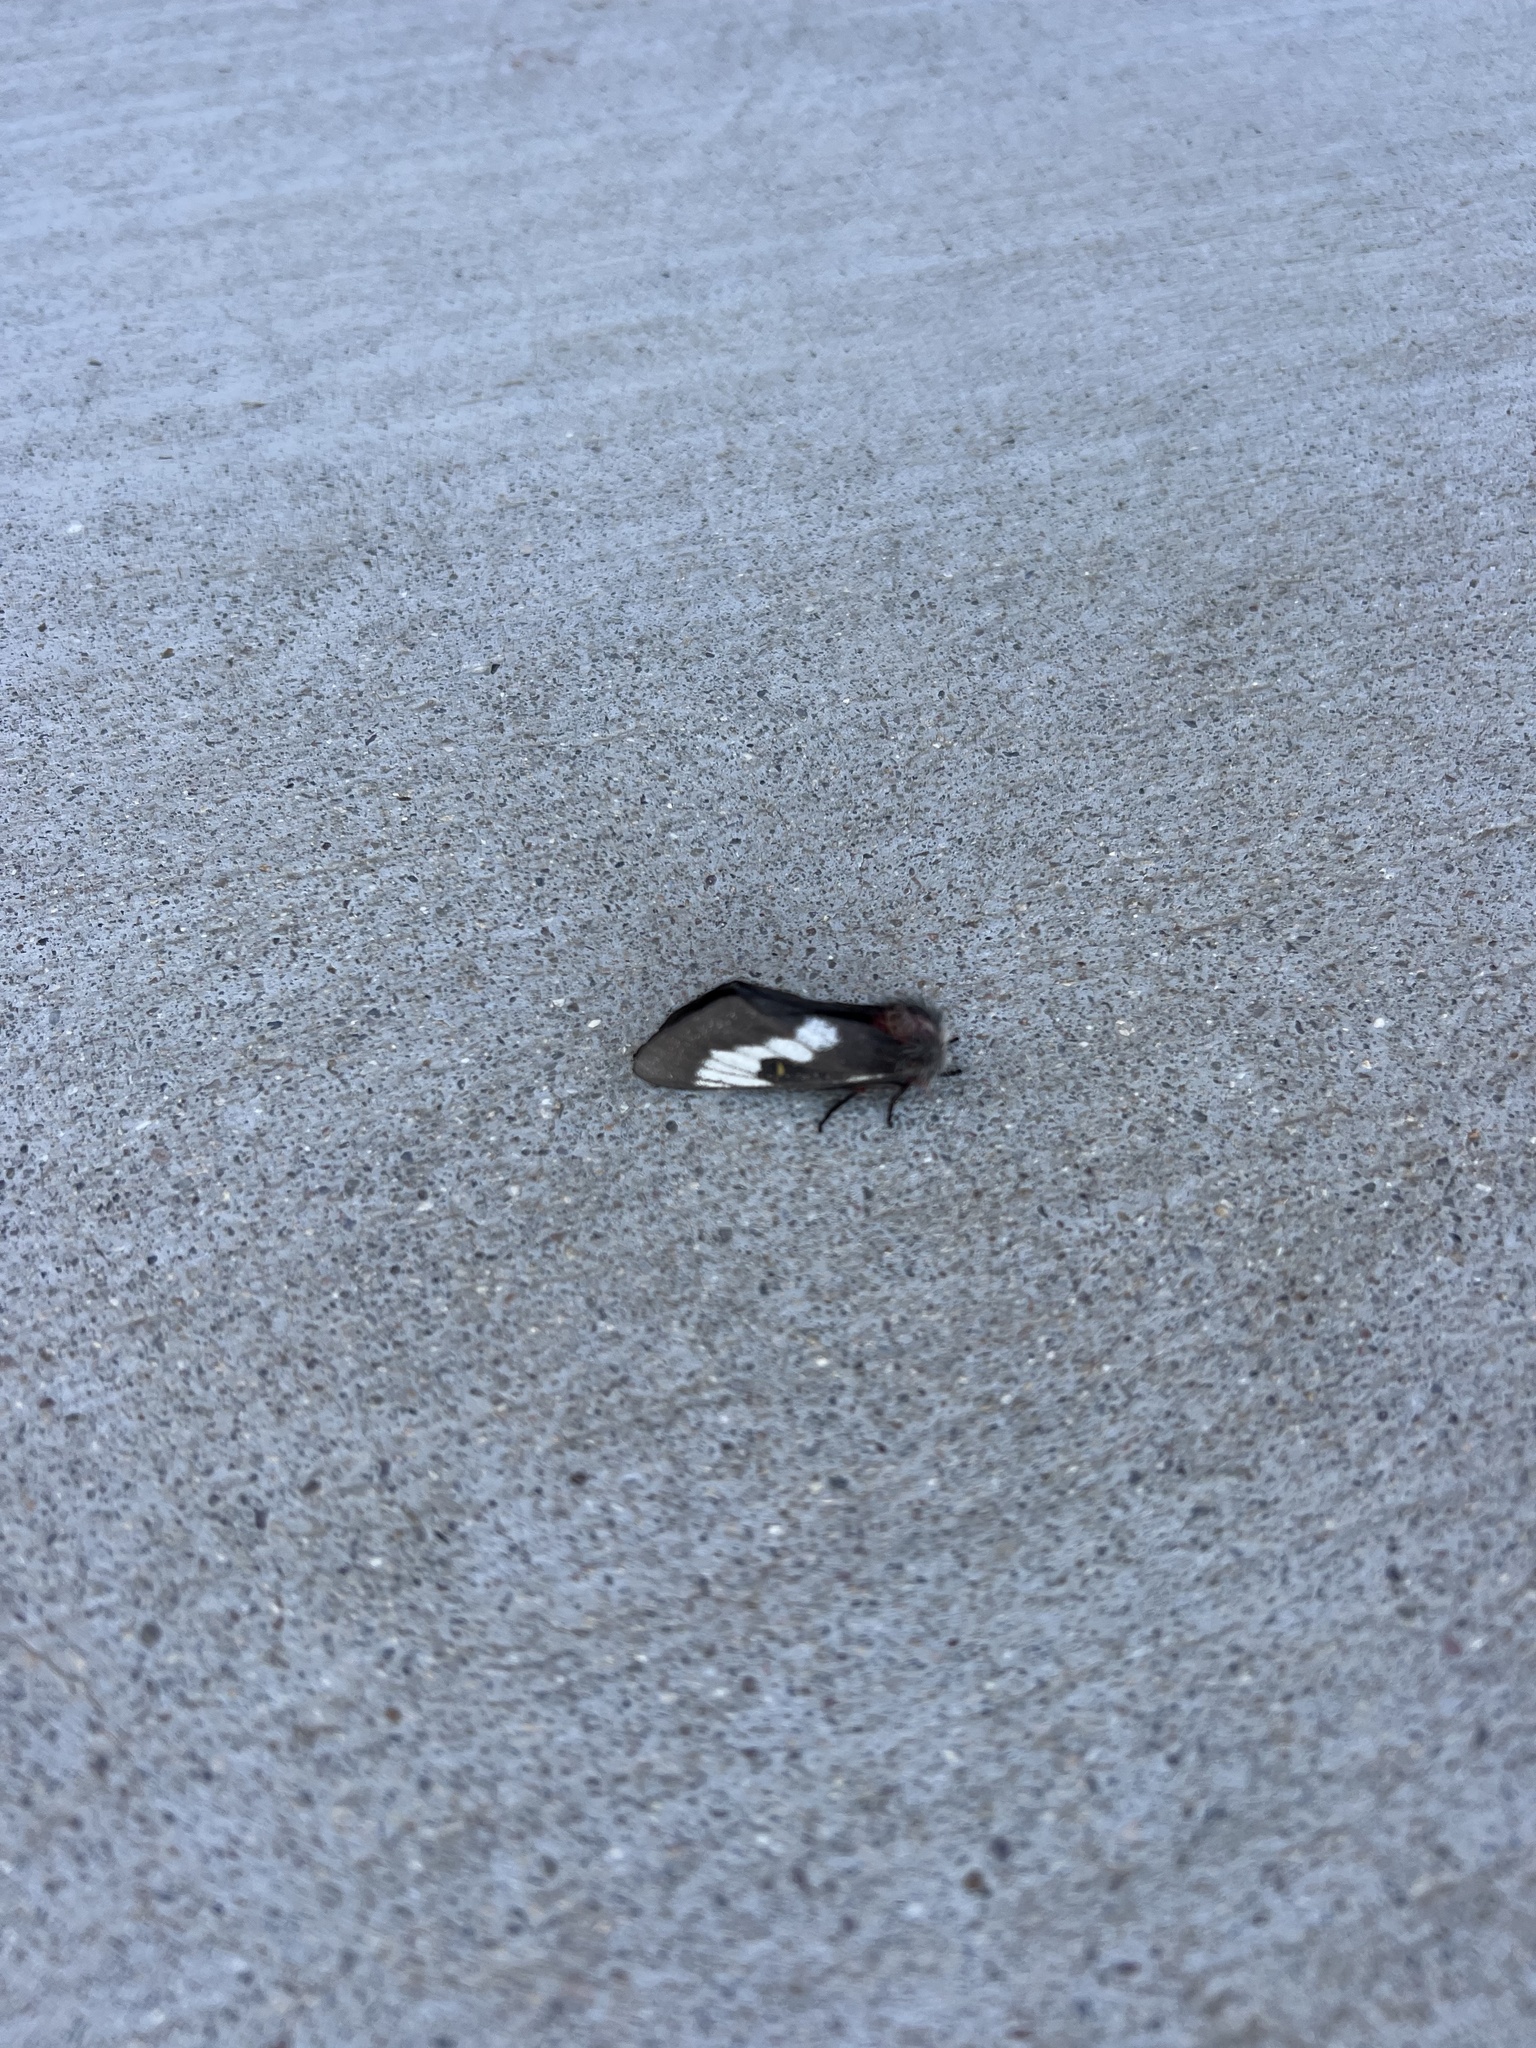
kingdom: Animalia
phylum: Arthropoda
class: Insecta
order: Lepidoptera
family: Saturniidae
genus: Hemileuca
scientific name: Hemileuca juno
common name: Juno buckmoth
